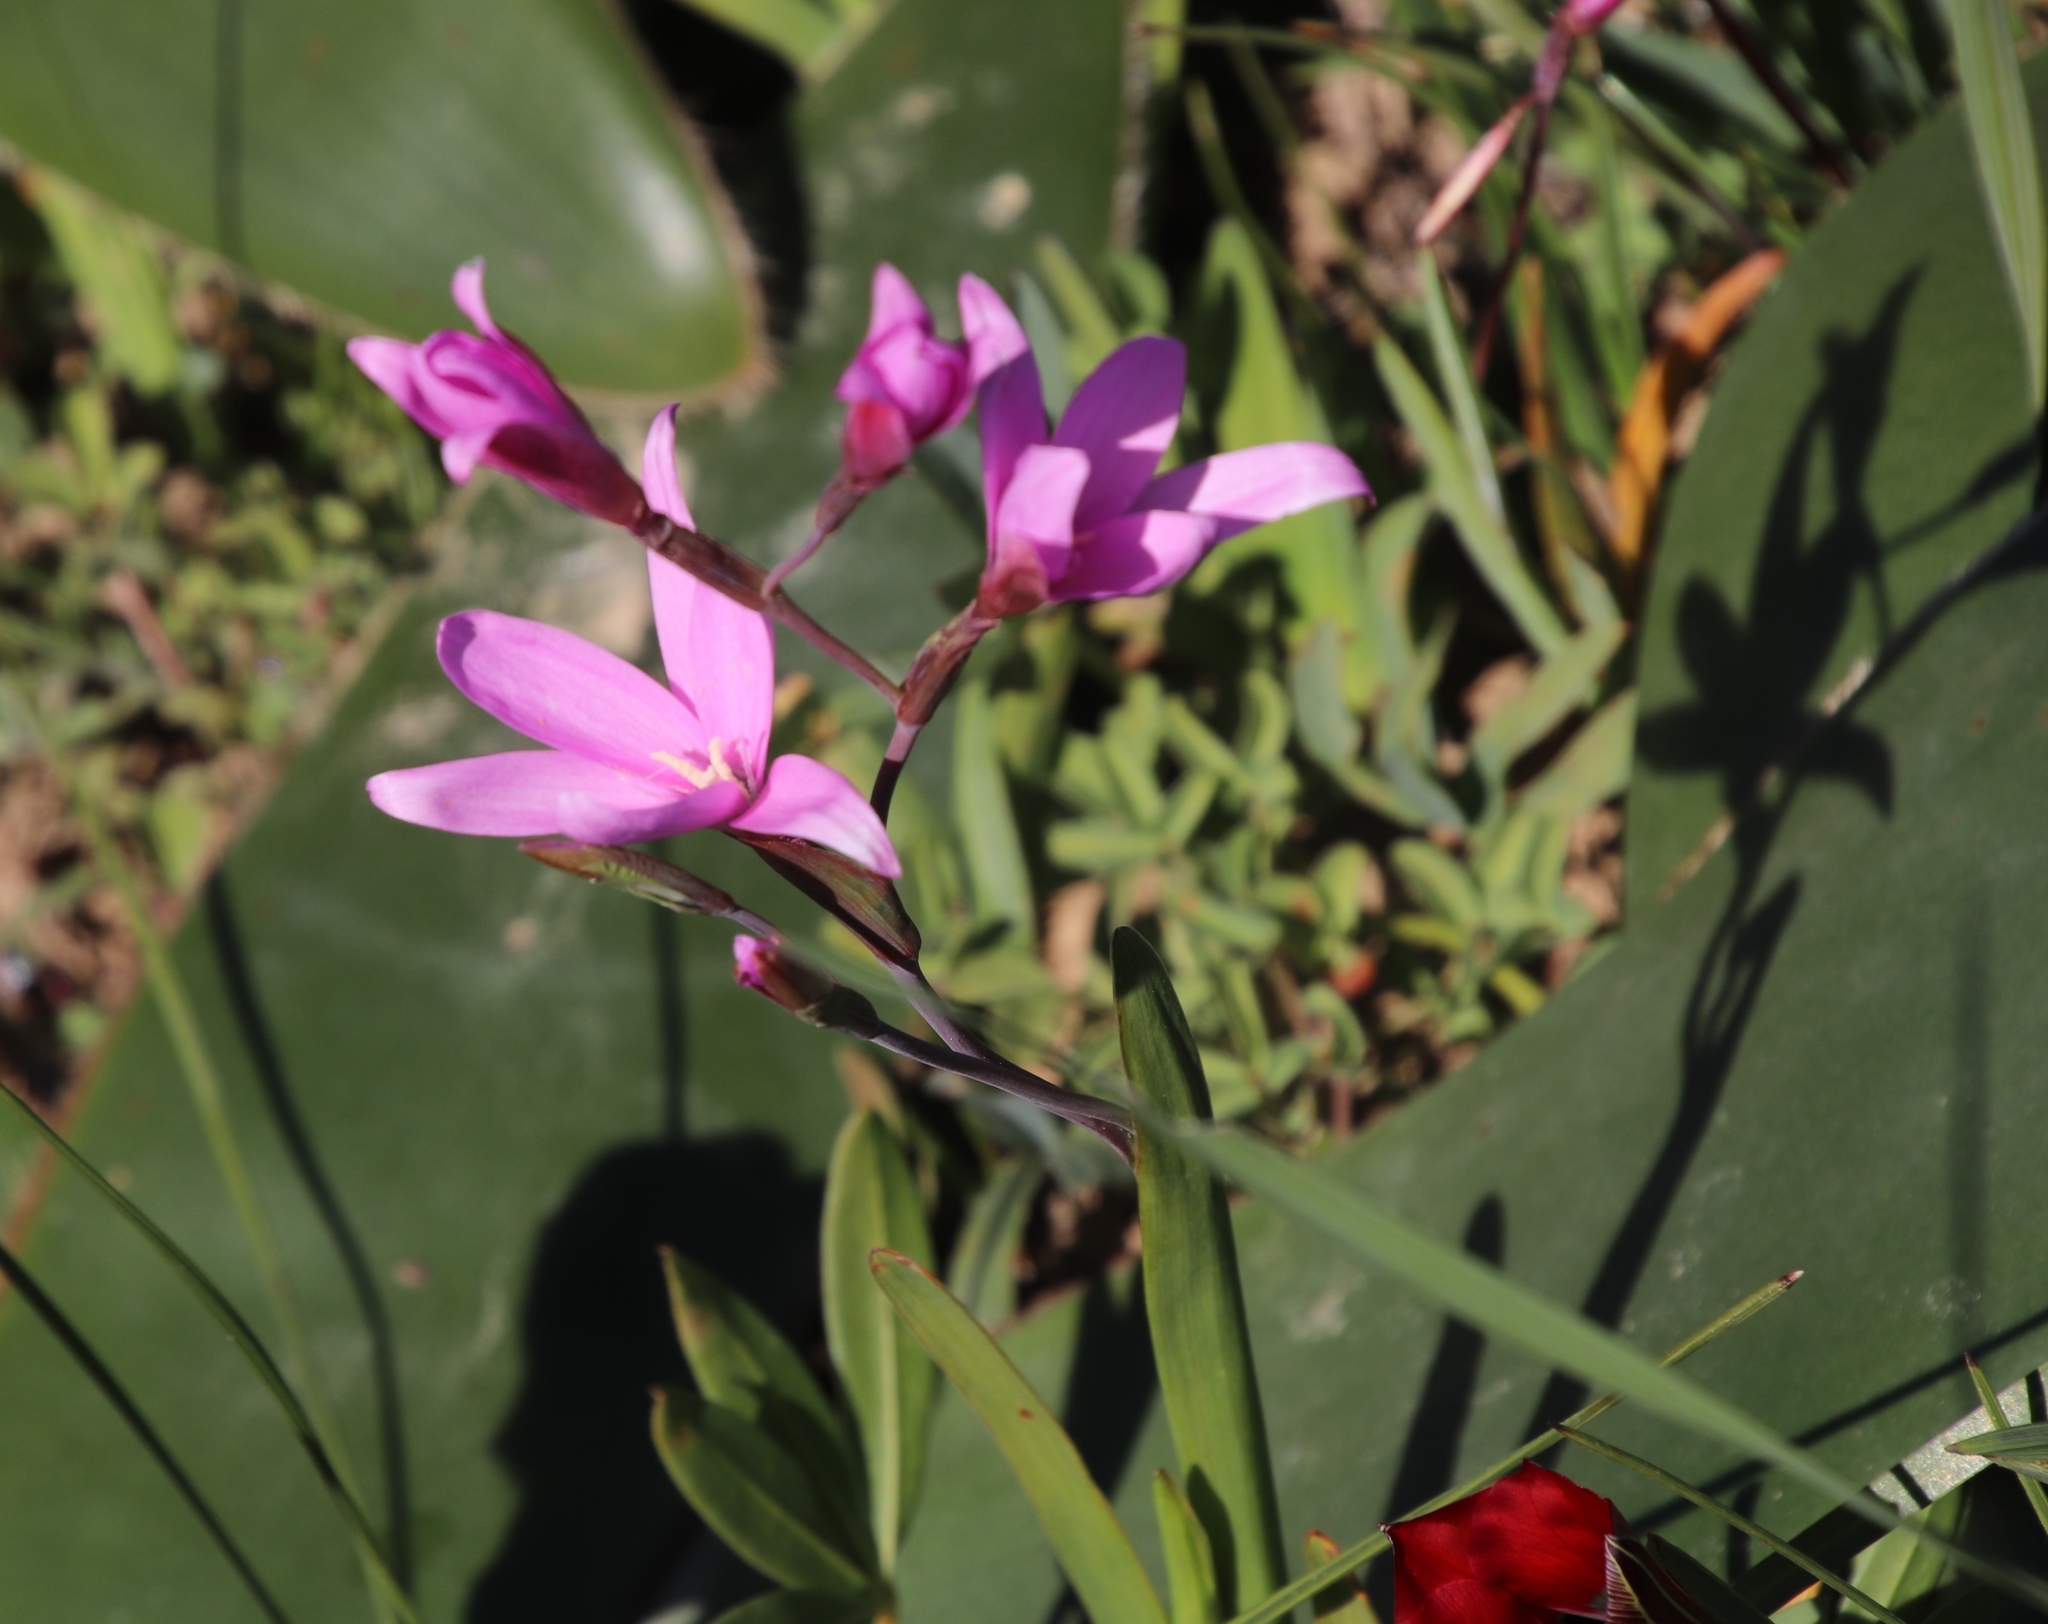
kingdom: Plantae
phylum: Tracheophyta
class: Liliopsida
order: Asparagales
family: Iridaceae
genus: Hesperantha
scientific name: Hesperantha pauciflora
